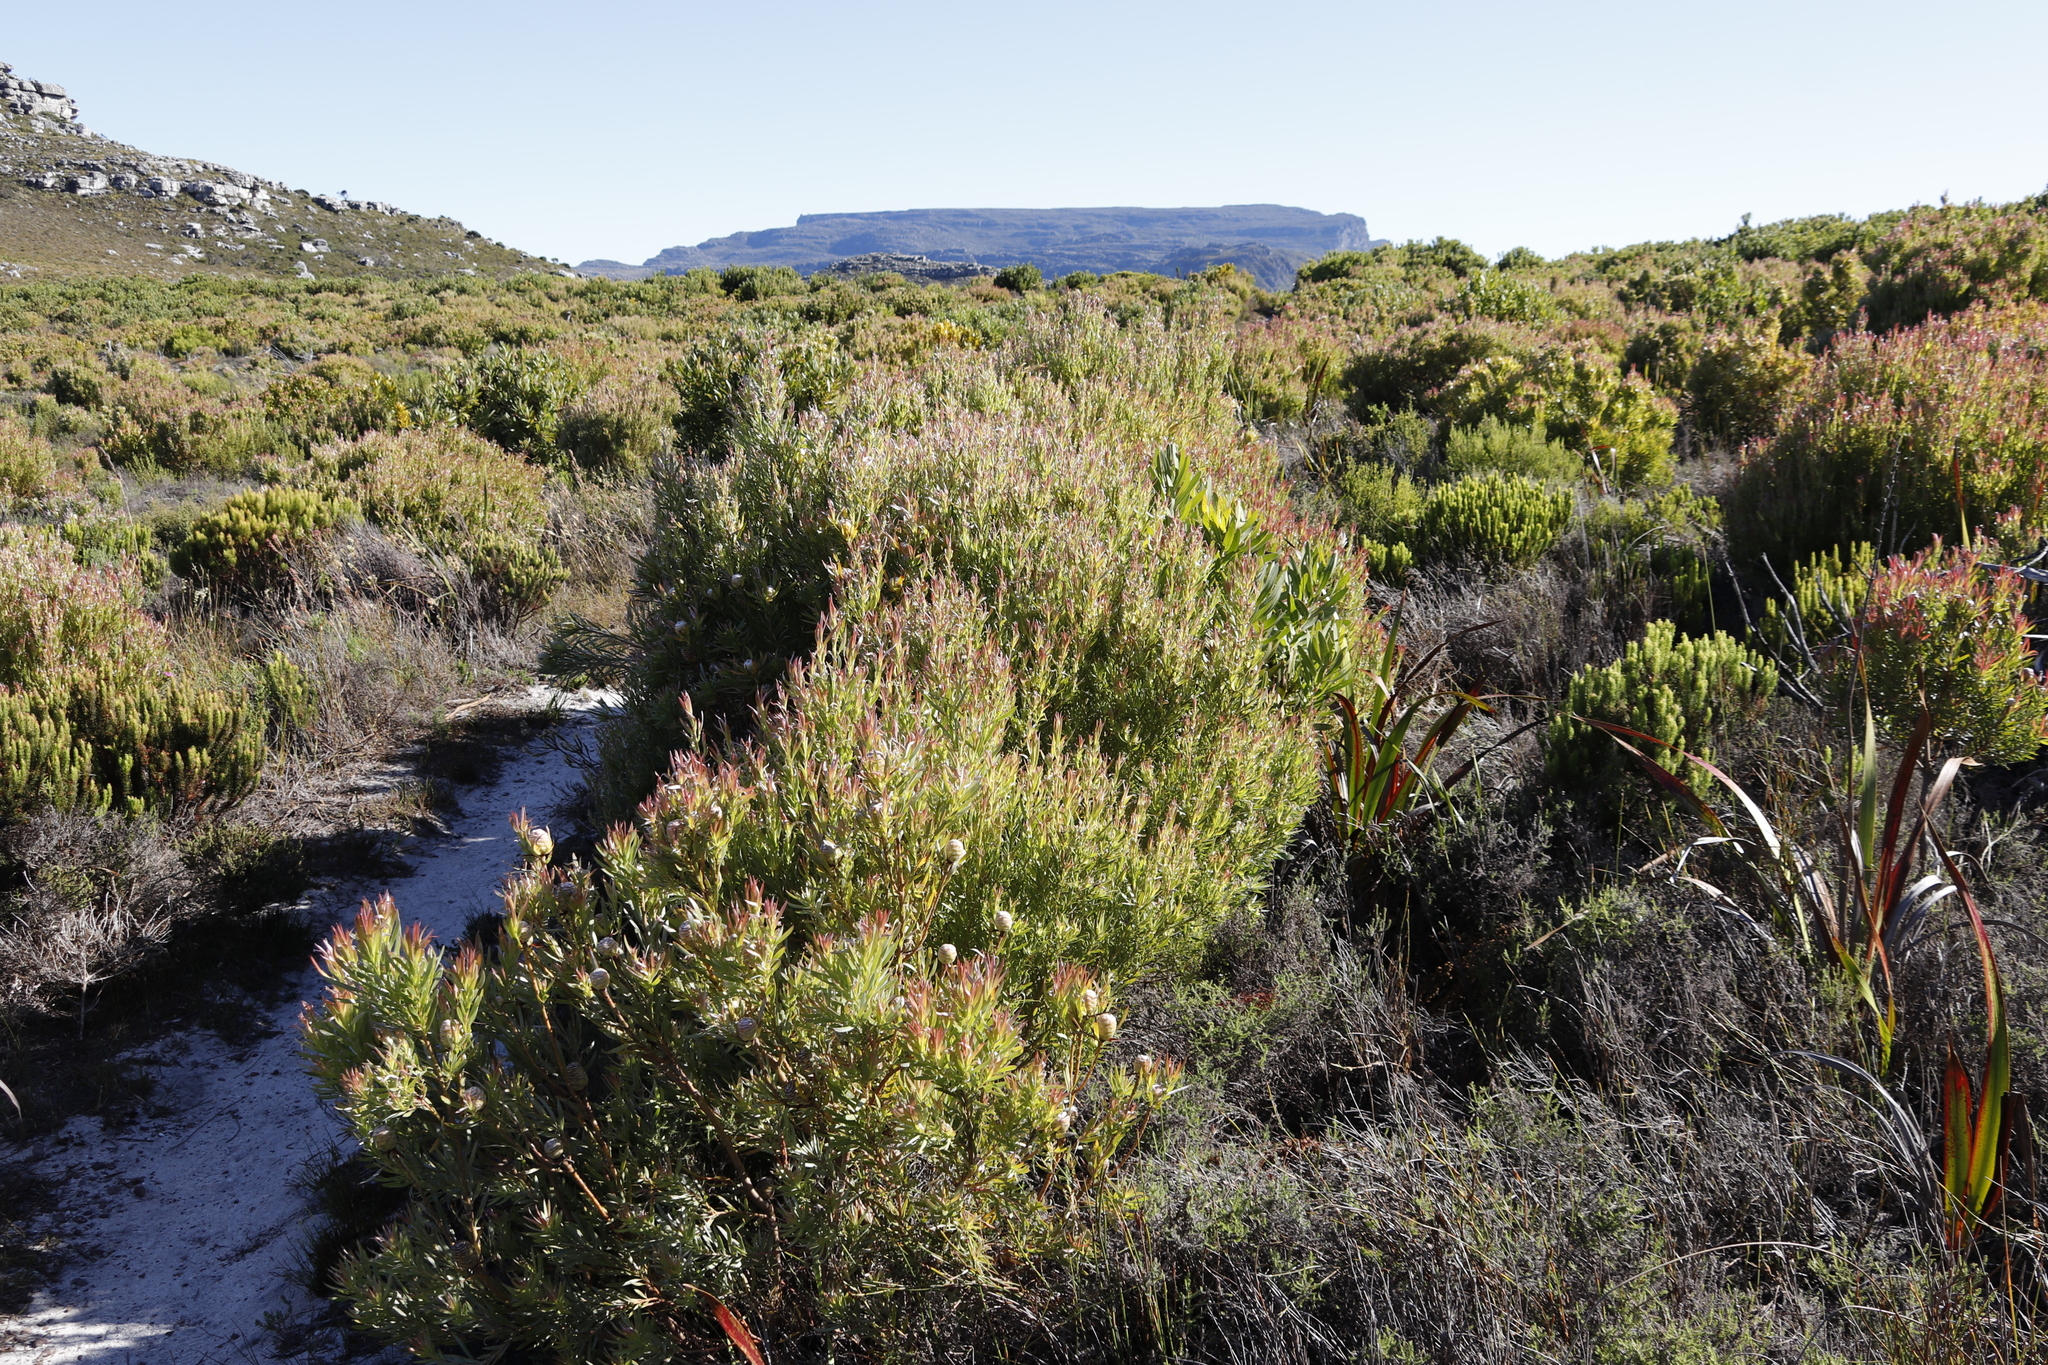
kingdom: Plantae
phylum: Tracheophyta
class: Magnoliopsida
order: Proteales
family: Proteaceae
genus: Leucadendron
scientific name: Leucadendron xanthoconus
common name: Sickle-leaf conebush
